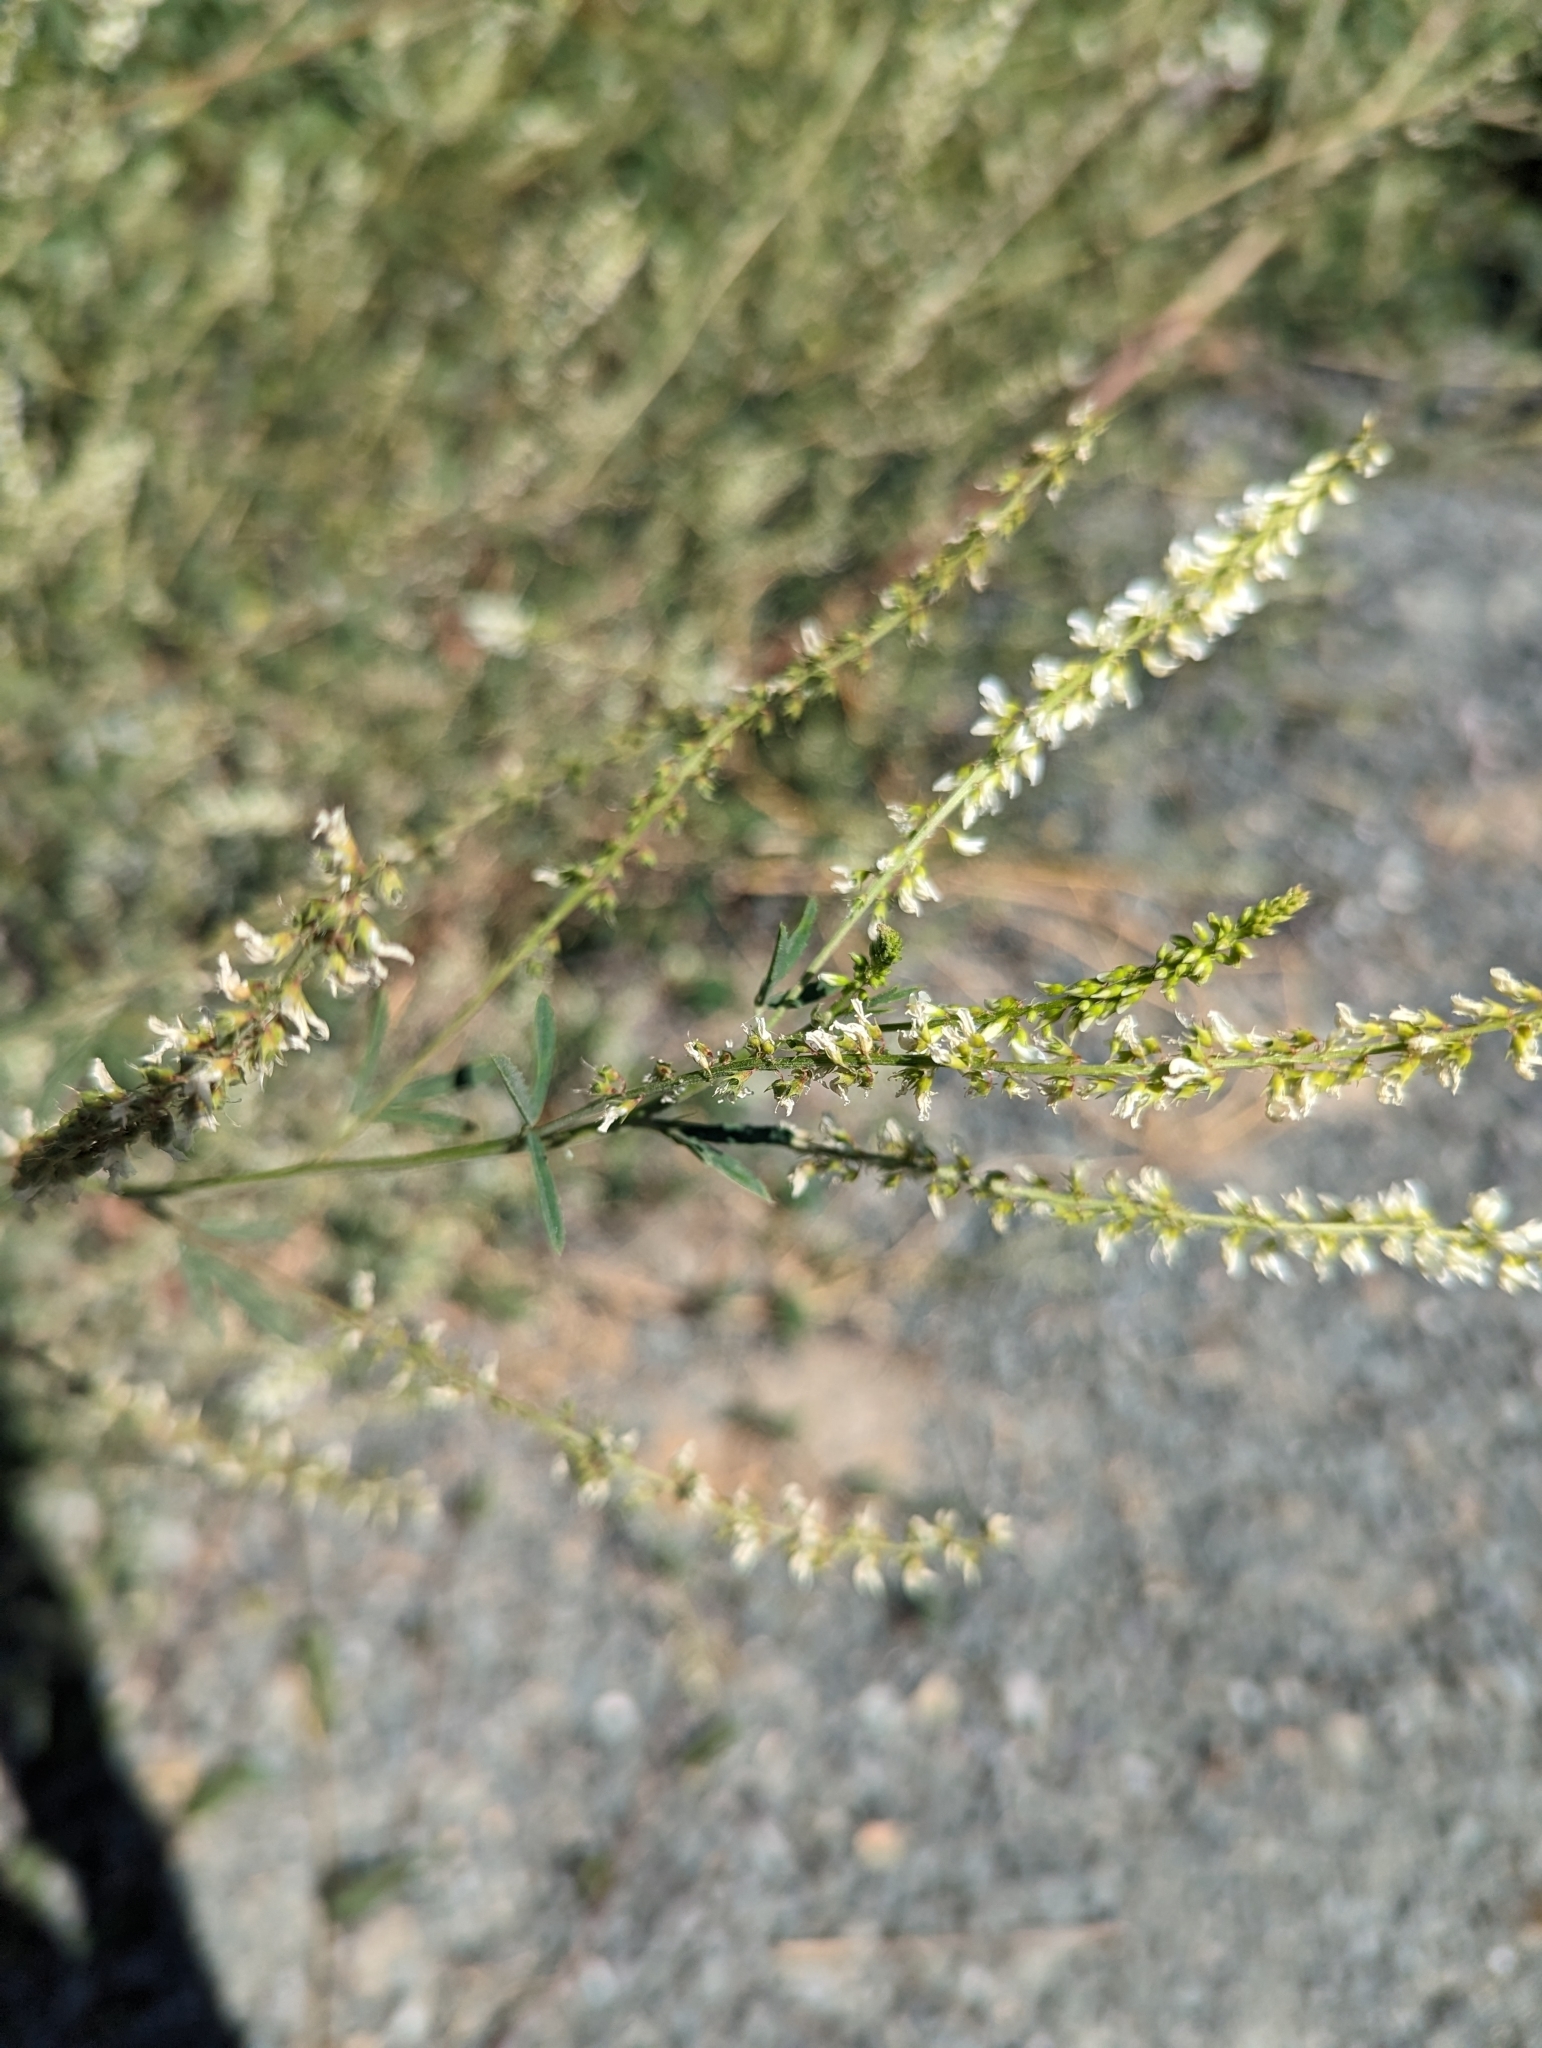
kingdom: Plantae
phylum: Tracheophyta
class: Magnoliopsida
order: Fabales
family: Fabaceae
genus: Melilotus
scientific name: Melilotus albus
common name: White melilot
